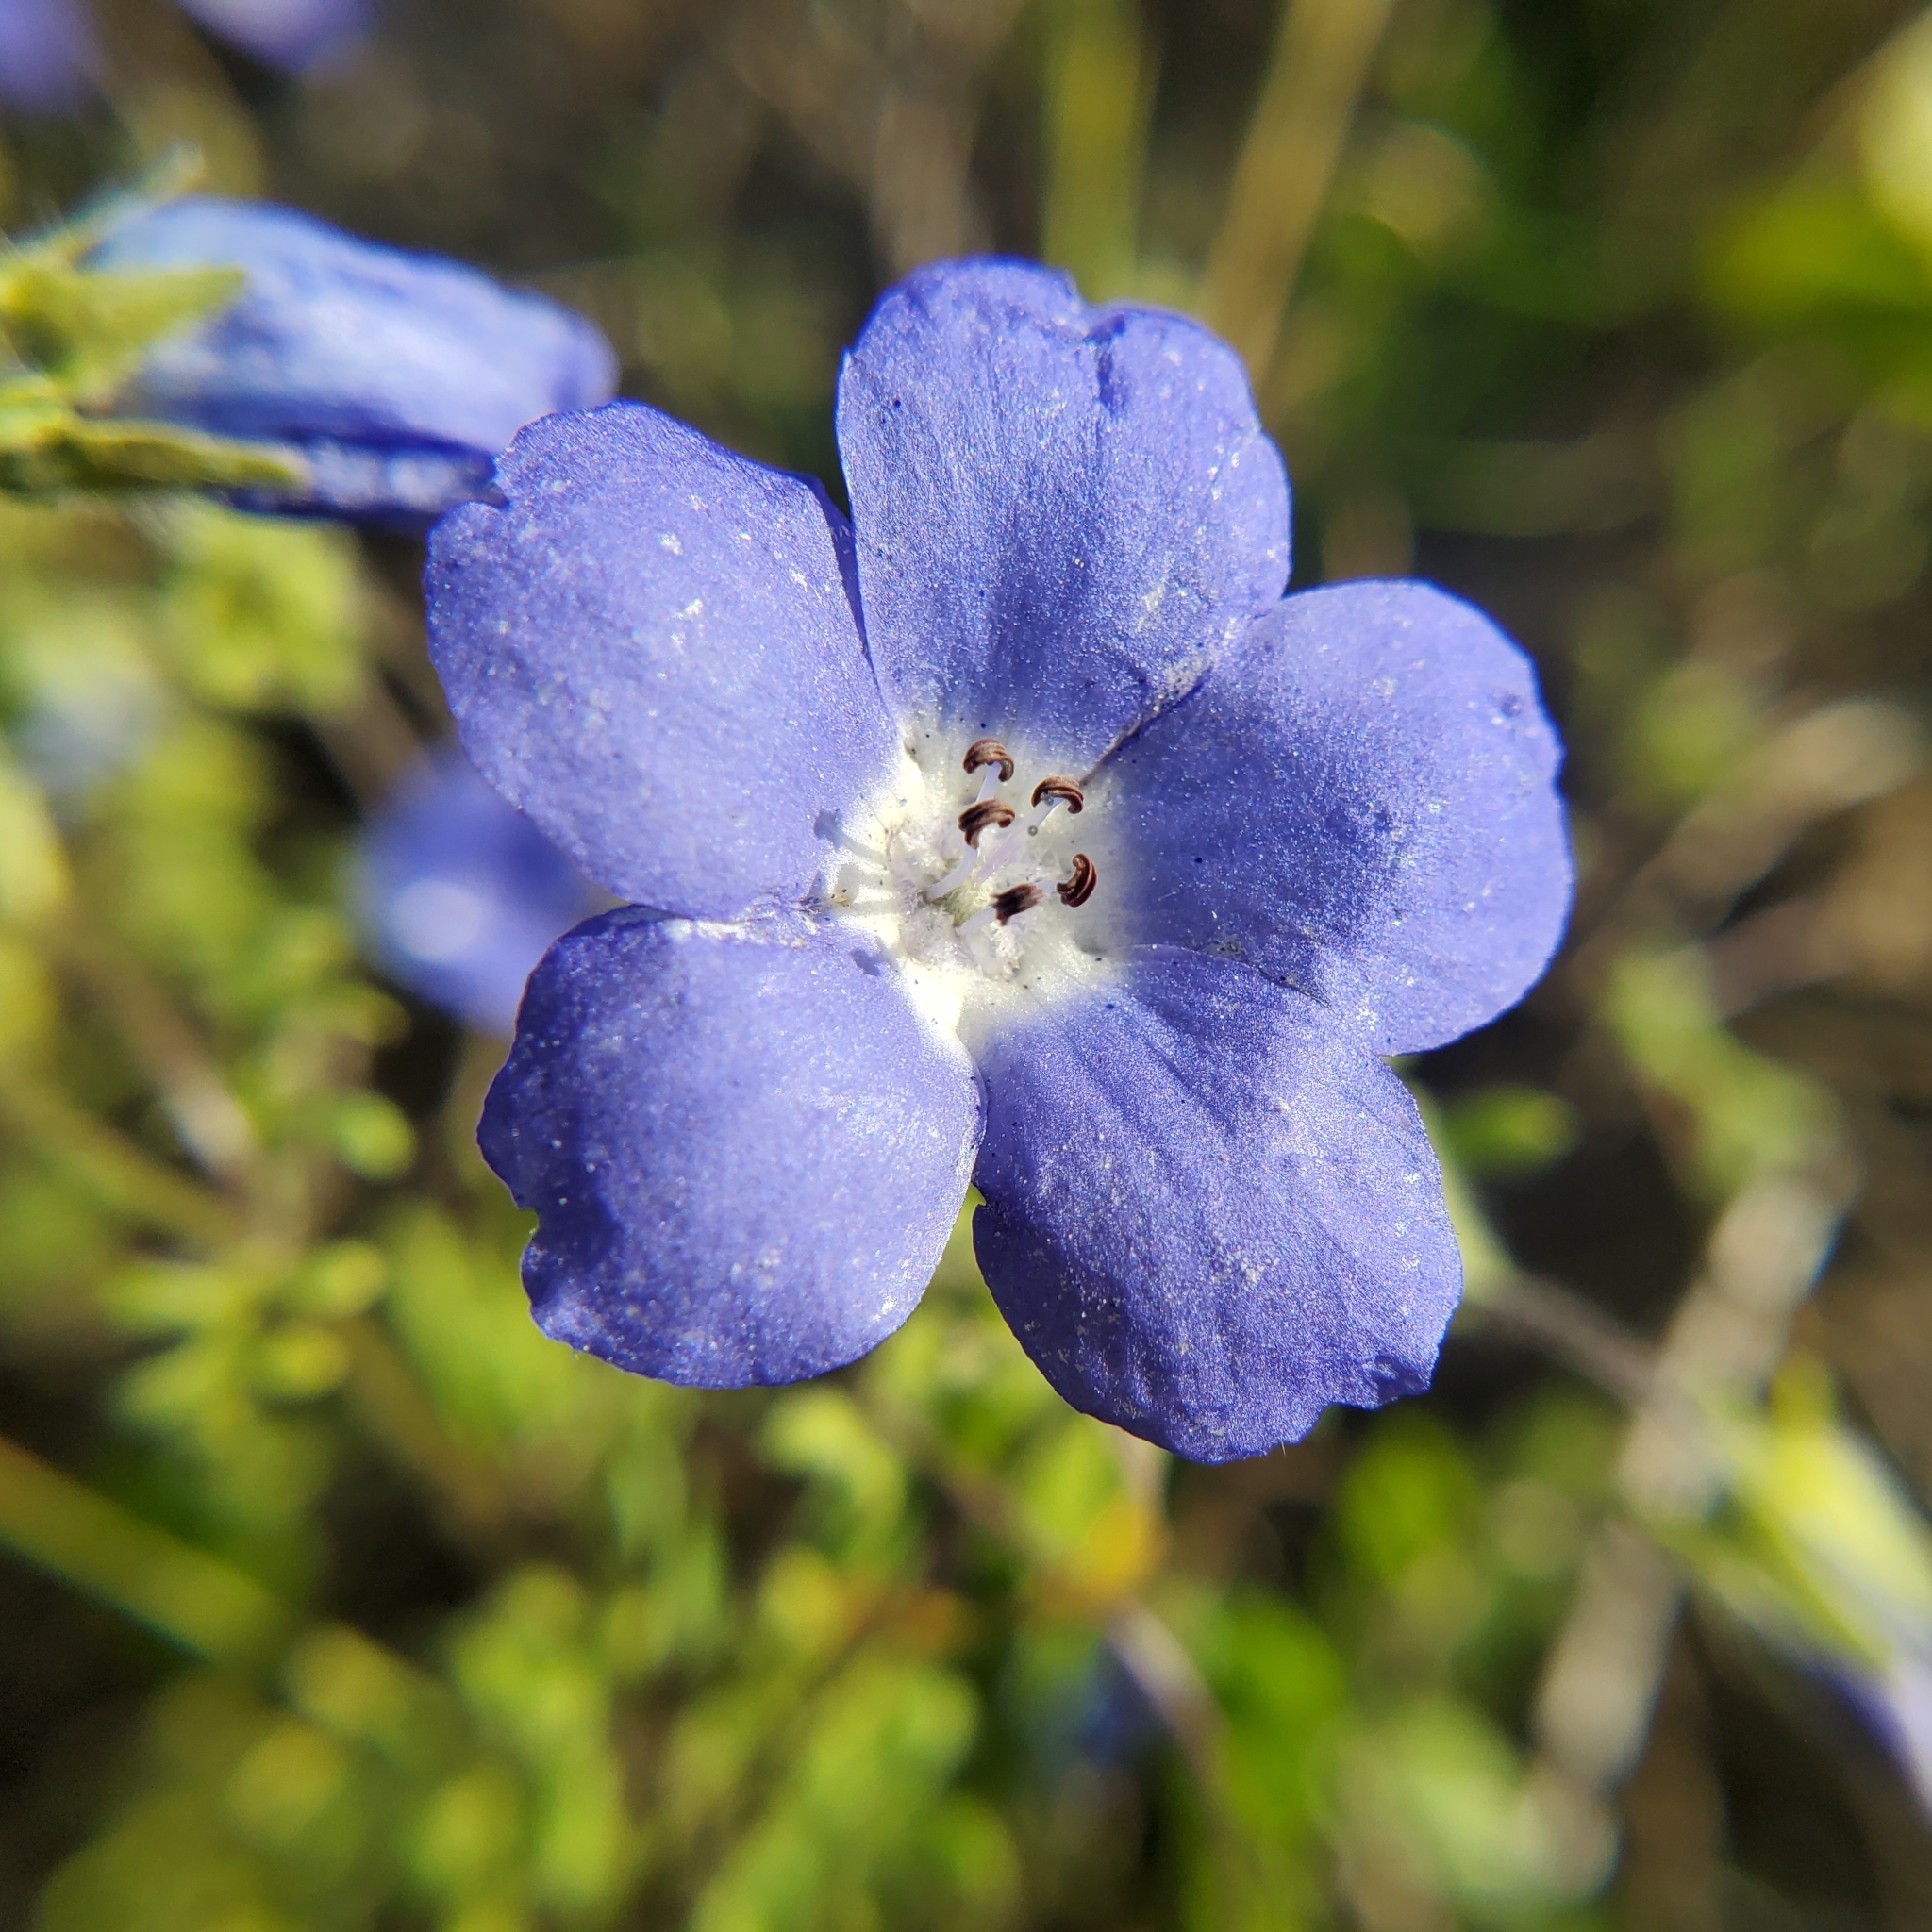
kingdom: Plantae
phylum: Tracheophyta
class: Magnoliopsida
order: Boraginales
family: Hydrophyllaceae
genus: Nemophila
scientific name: Nemophila menziesii
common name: Baby's-blue-eyes
